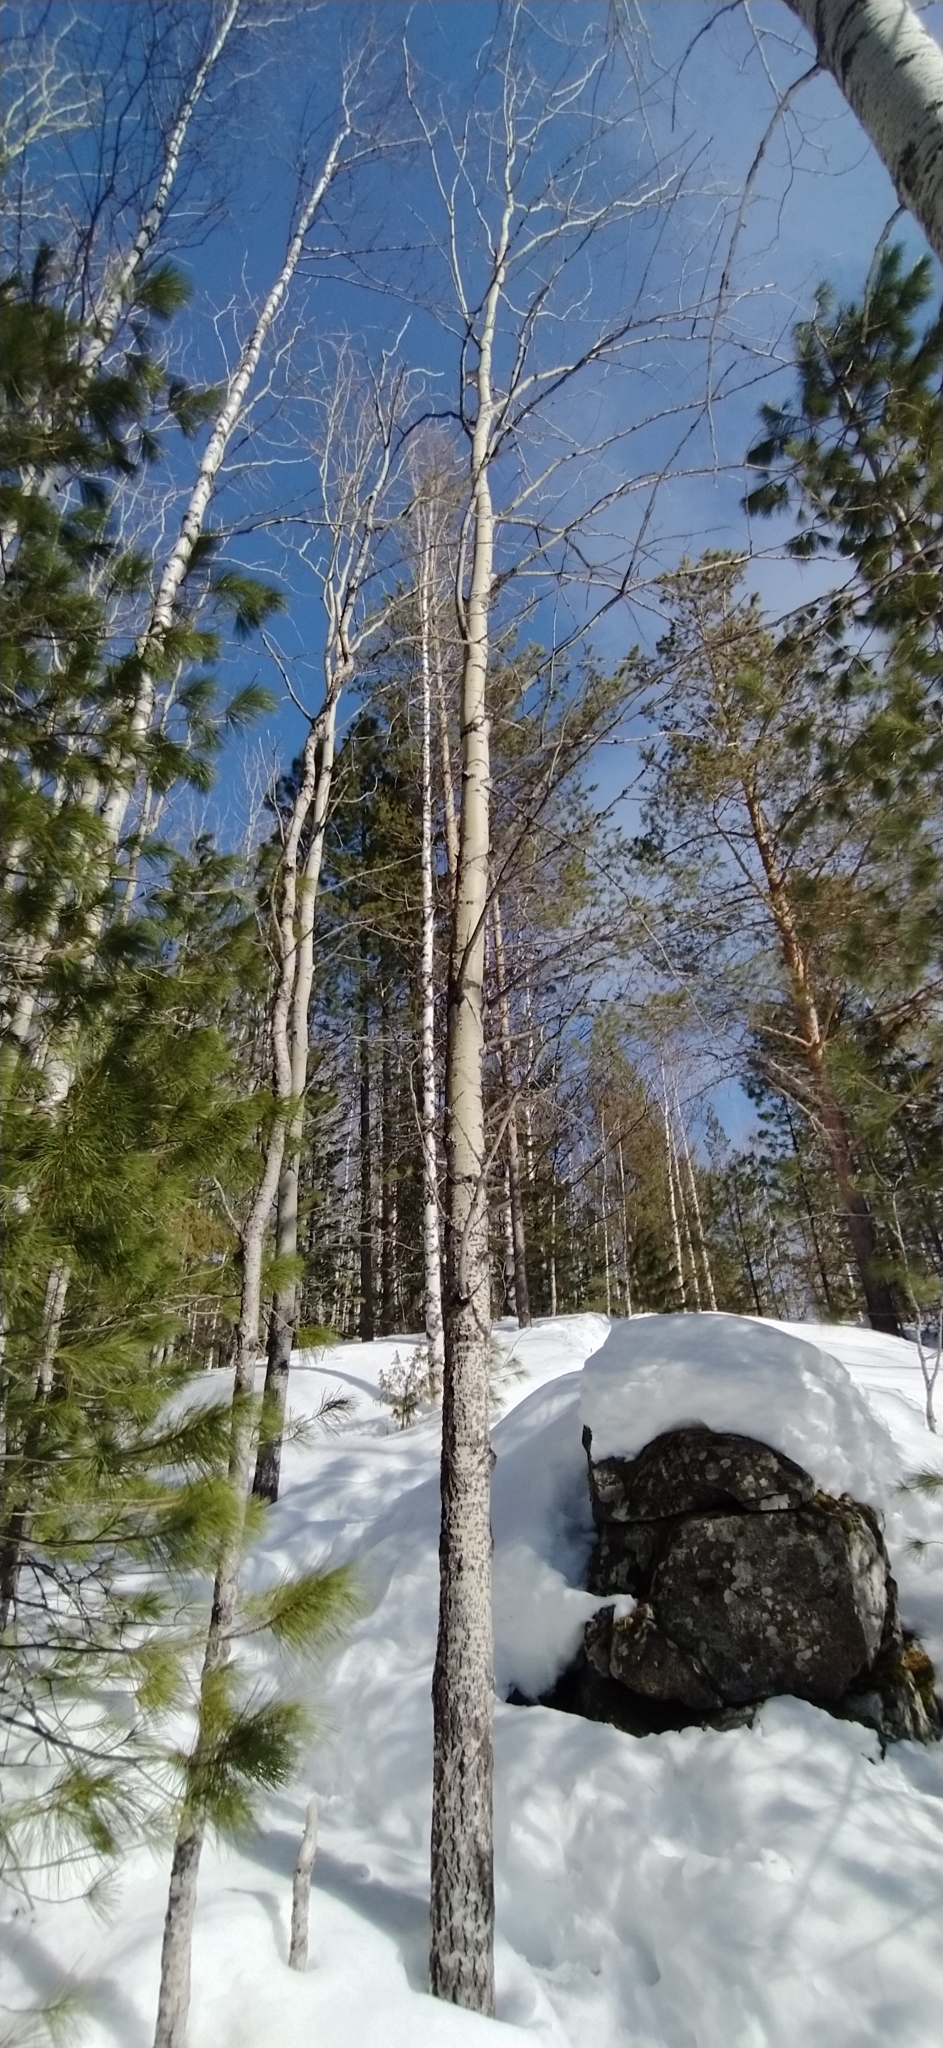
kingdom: Plantae
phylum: Tracheophyta
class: Magnoliopsida
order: Malpighiales
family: Salicaceae
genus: Populus
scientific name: Populus tremula
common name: European aspen
